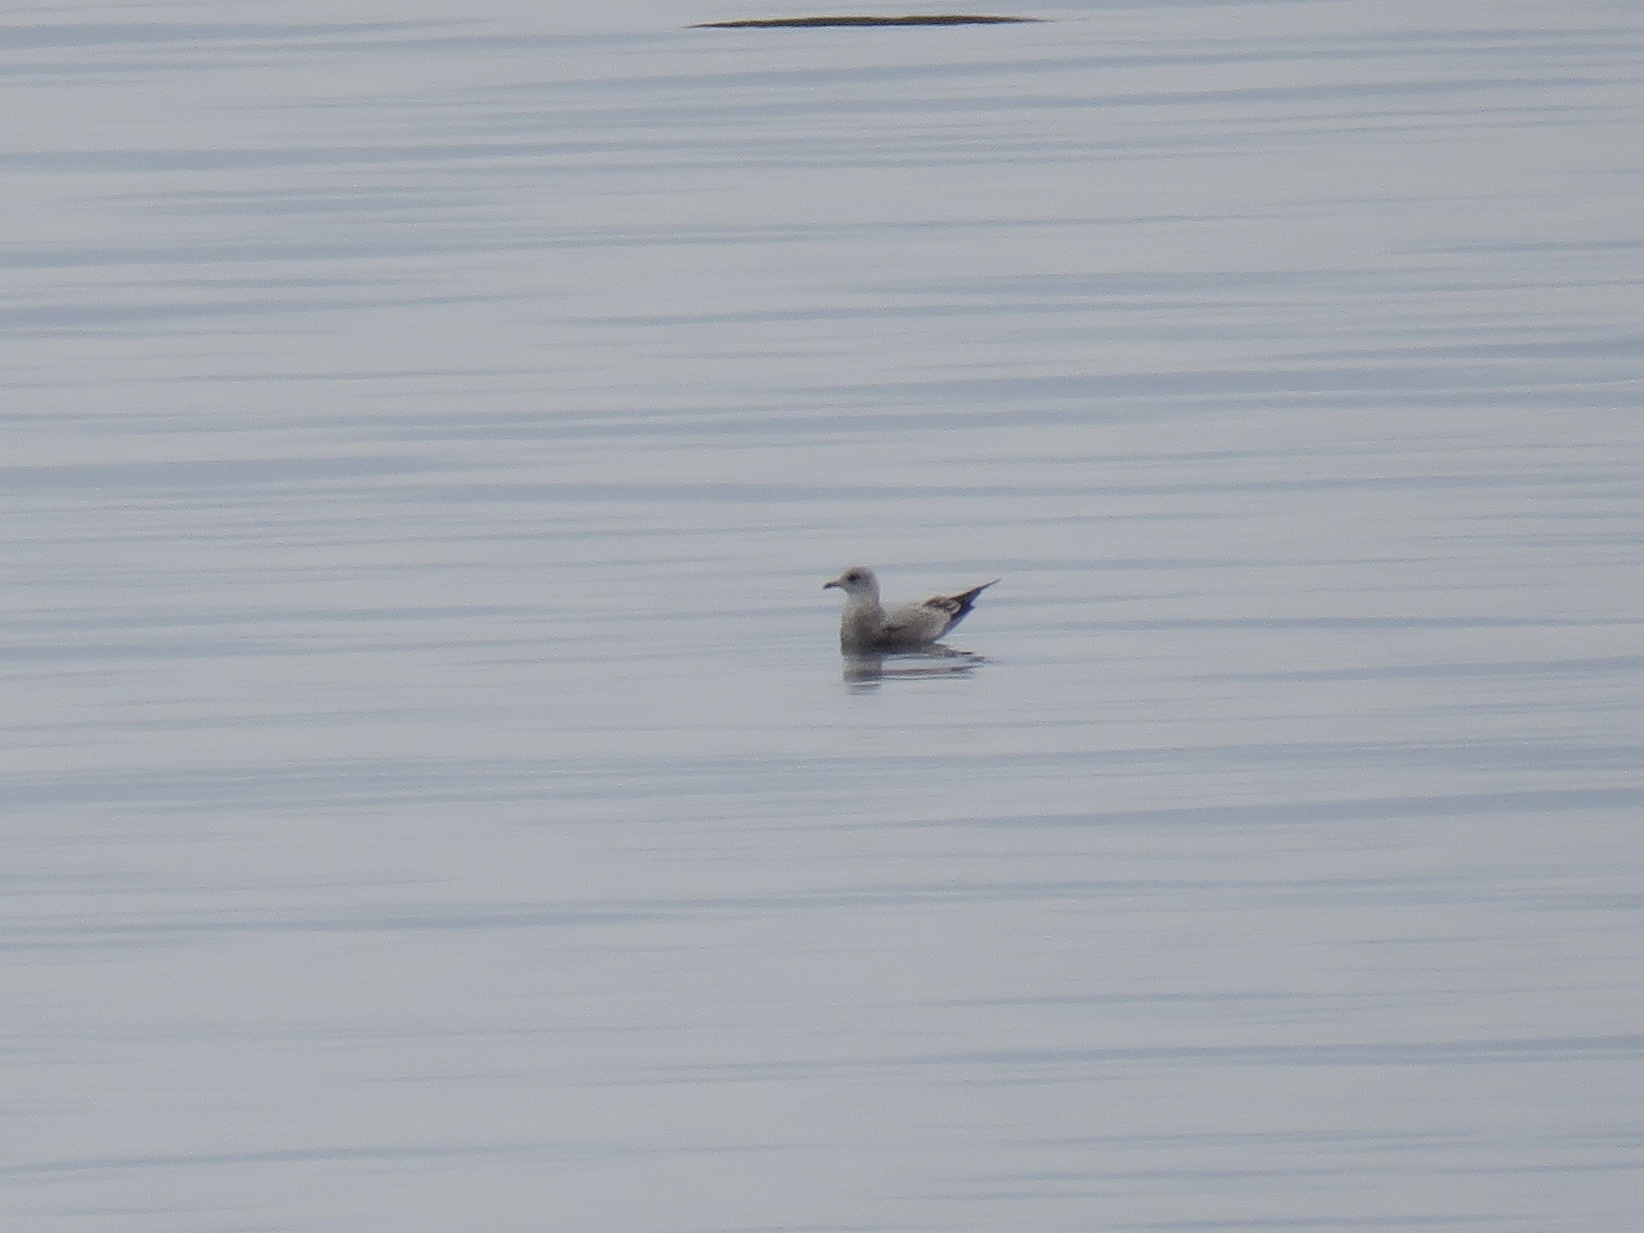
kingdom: Animalia
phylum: Chordata
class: Aves
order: Charadriiformes
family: Laridae
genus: Larus
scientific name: Larus brachyrhynchus
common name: Short-billed gull
